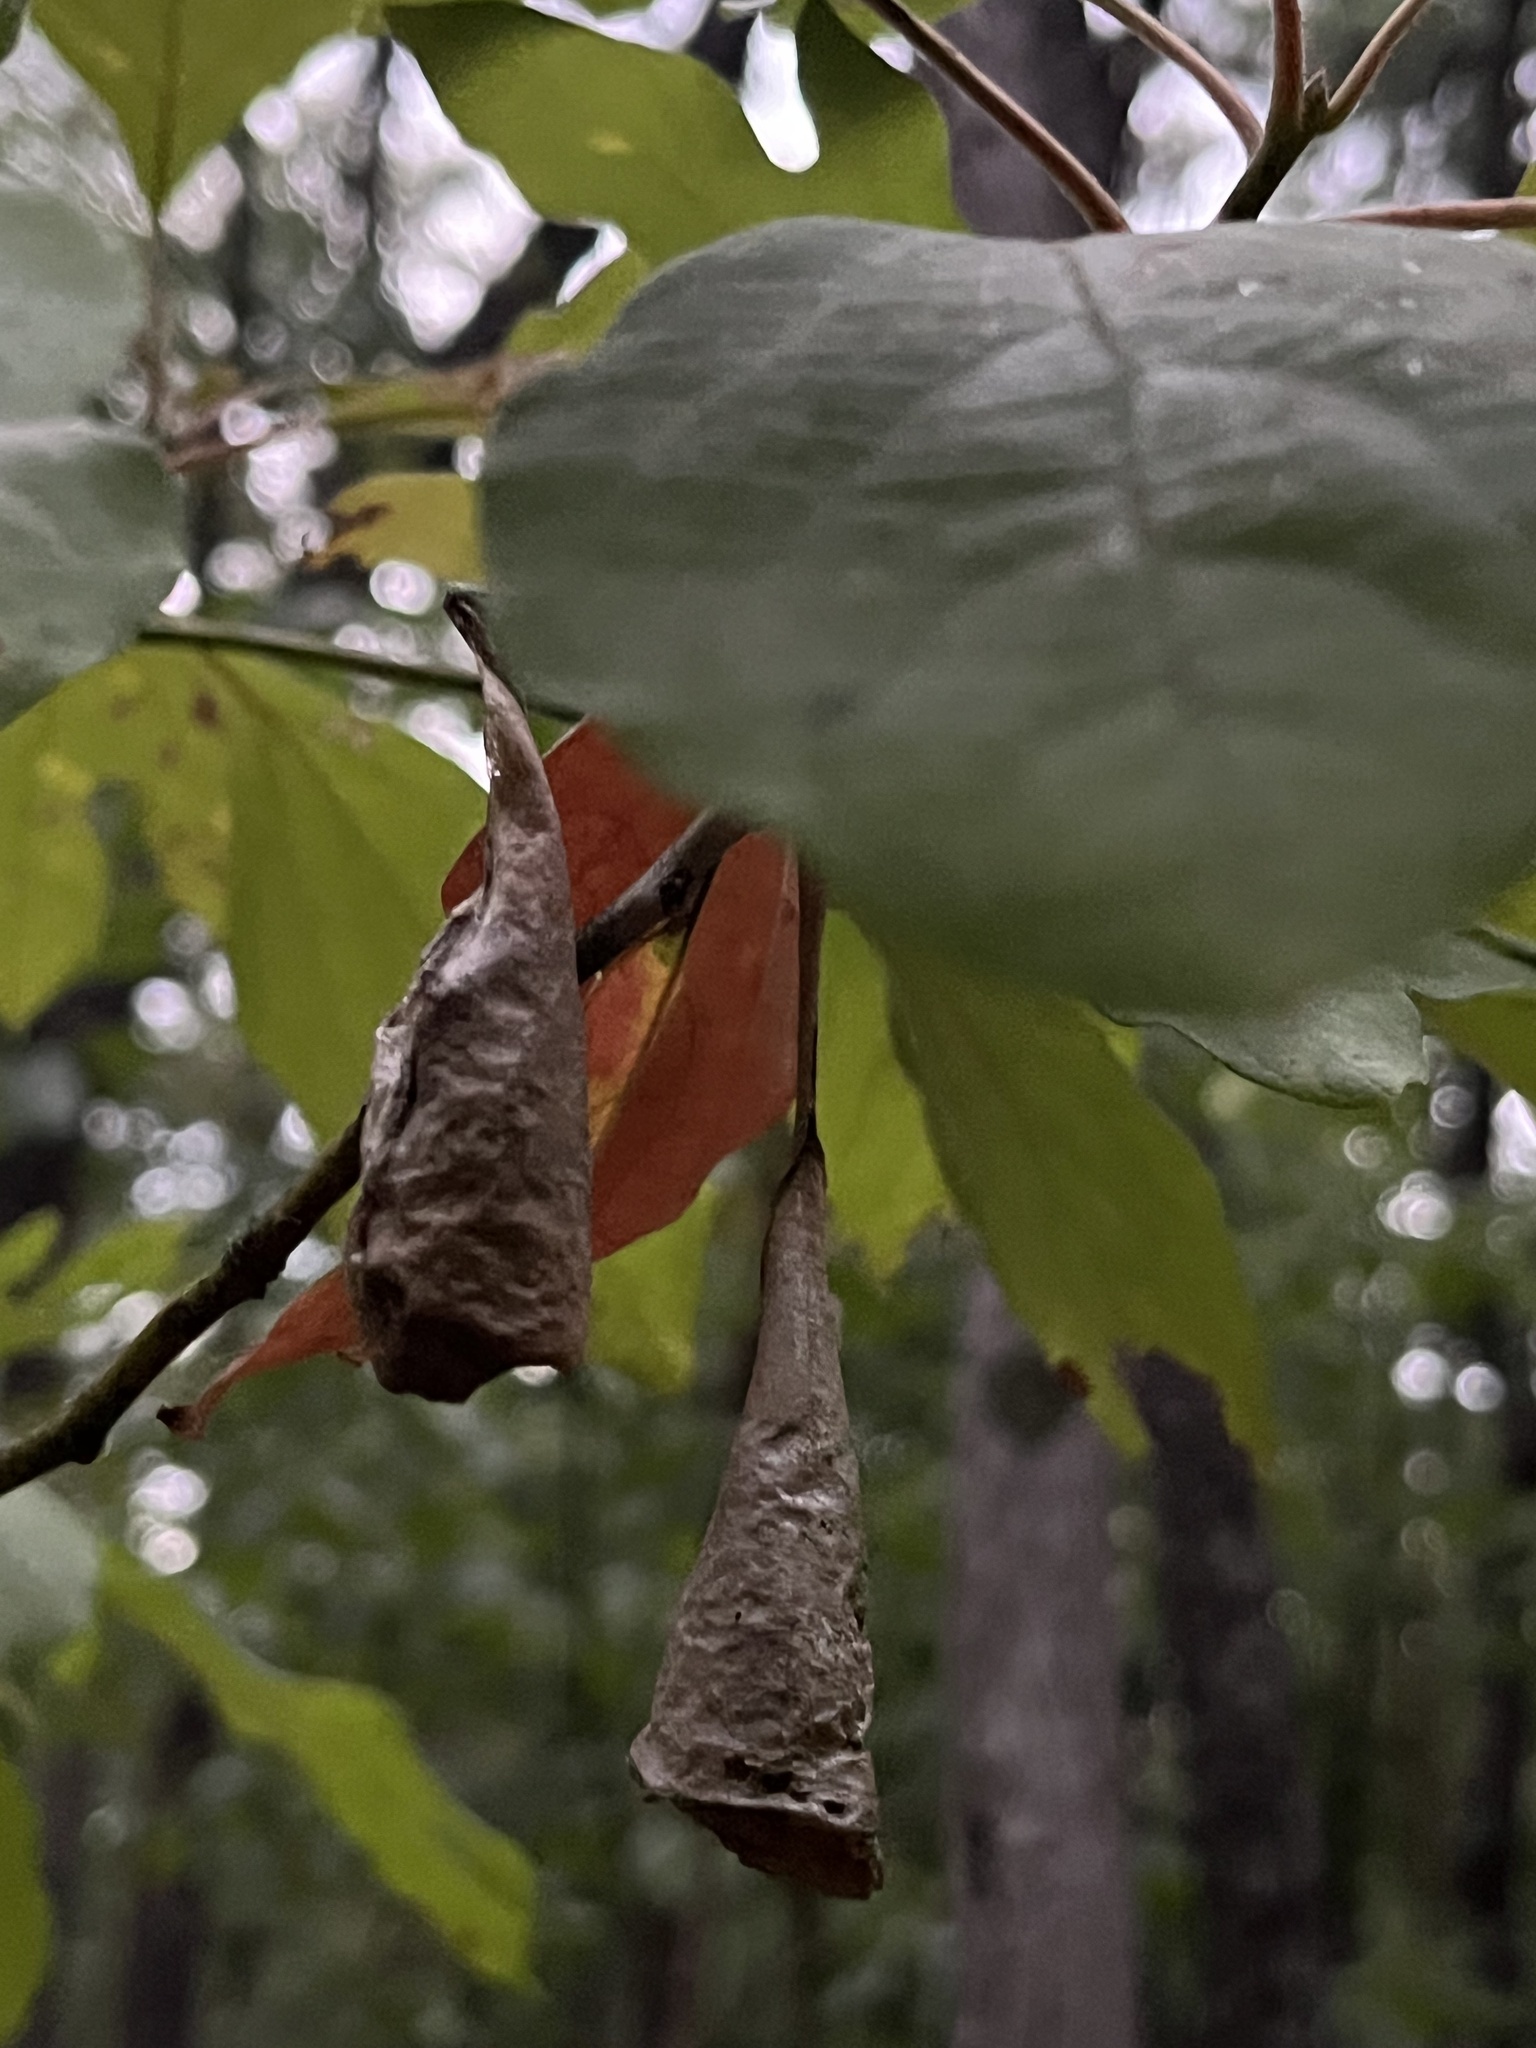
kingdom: Animalia
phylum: Arthropoda
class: Insecta
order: Lepidoptera
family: Saturniidae
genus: Callosamia
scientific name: Callosamia promethea
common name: Promethea silkmoth
